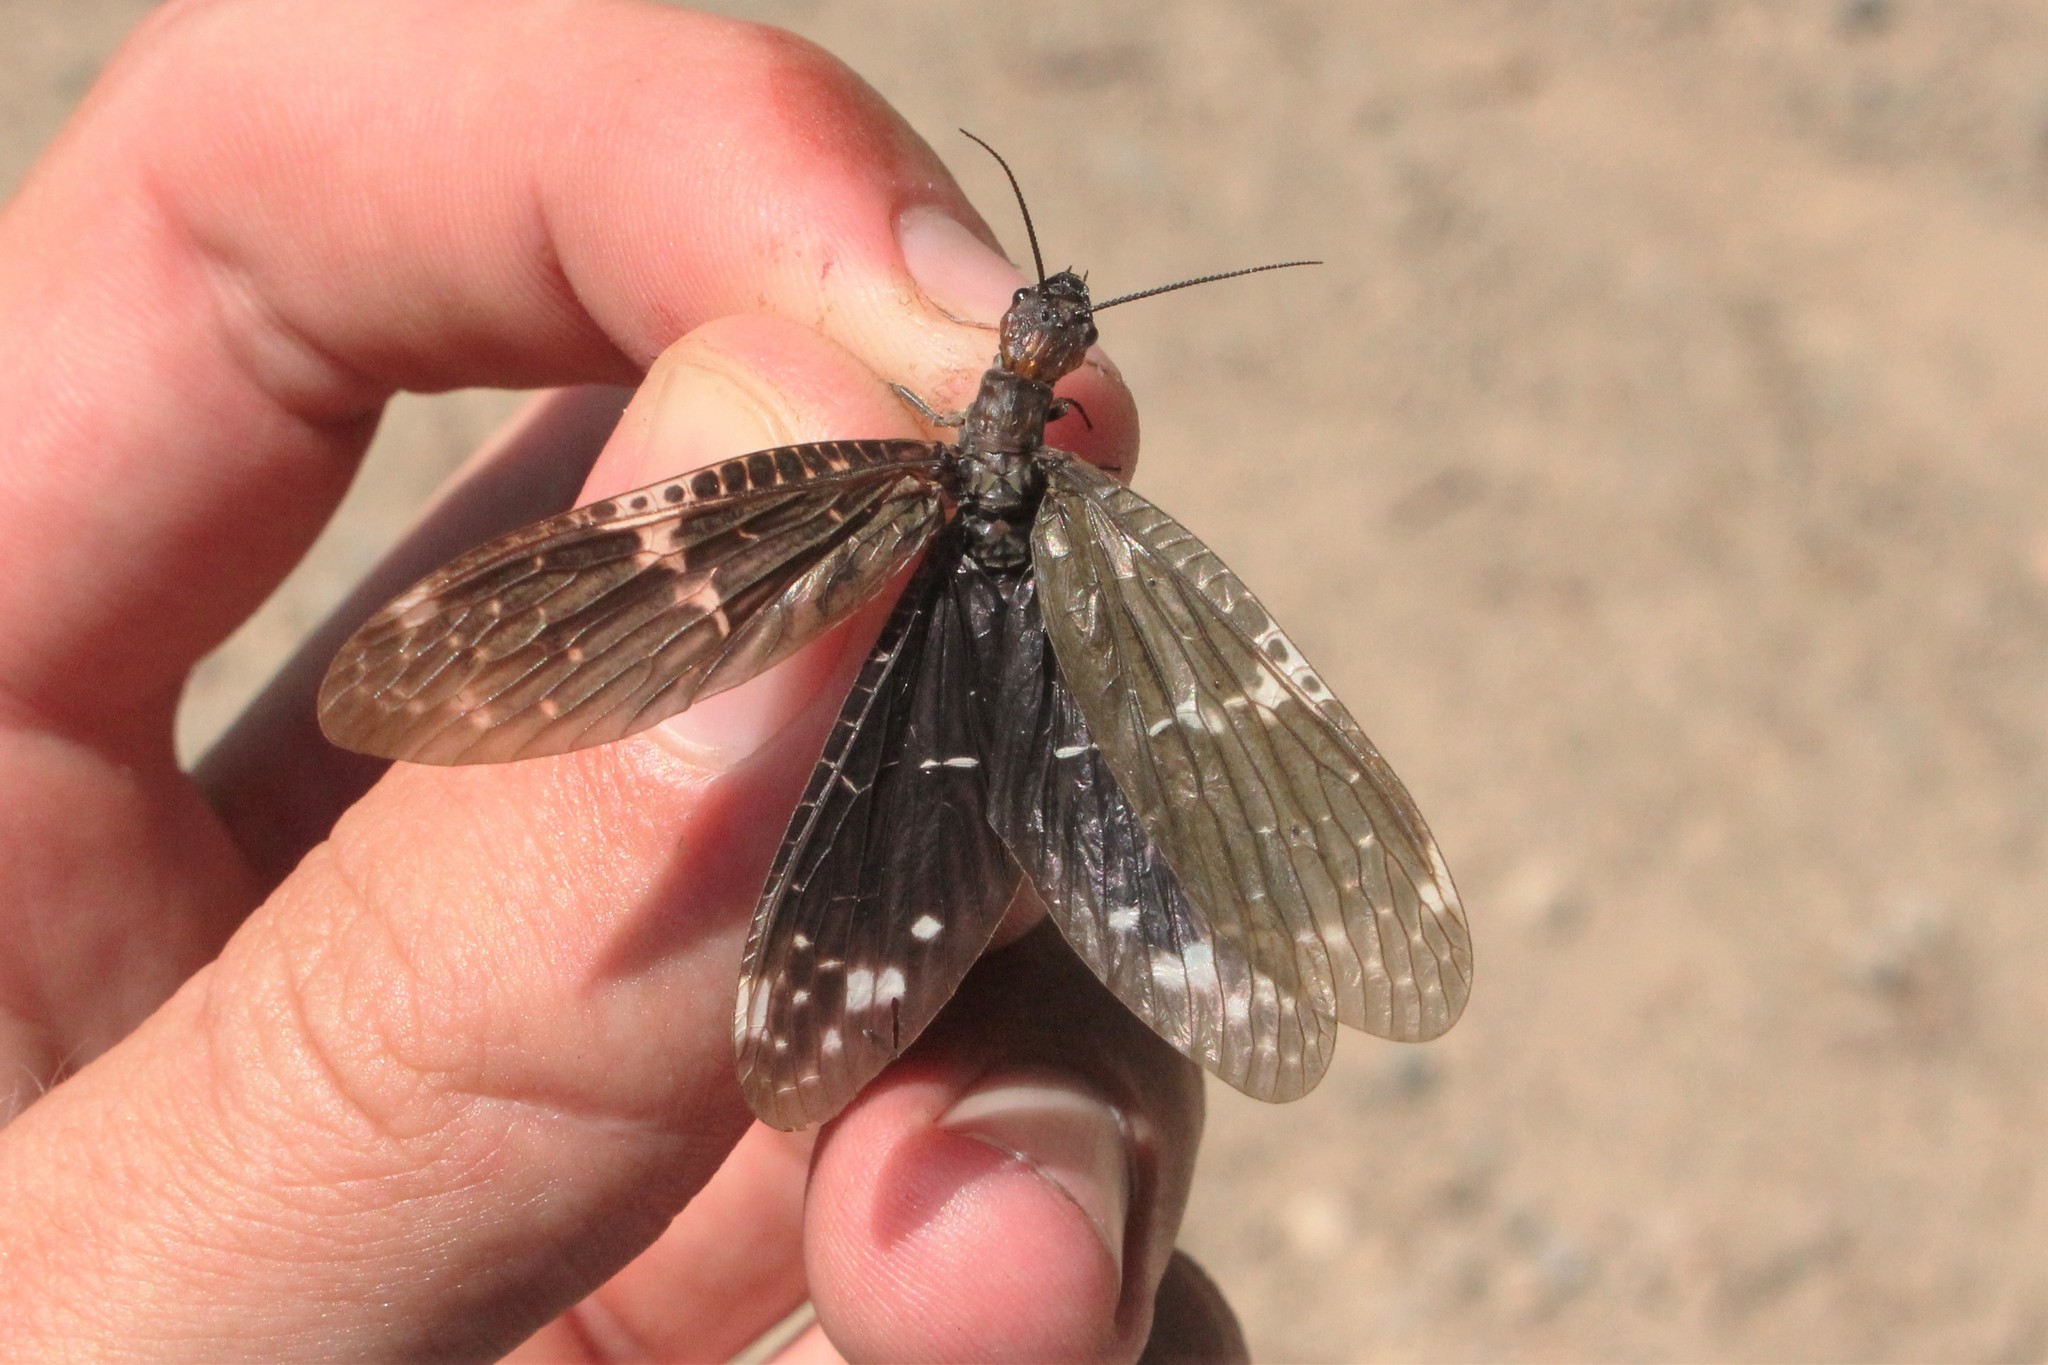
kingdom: Animalia
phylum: Arthropoda
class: Insecta
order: Megaloptera
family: Corydalidae
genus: Nigronia
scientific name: Nigronia serricornis
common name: Serrate dark fishfly
